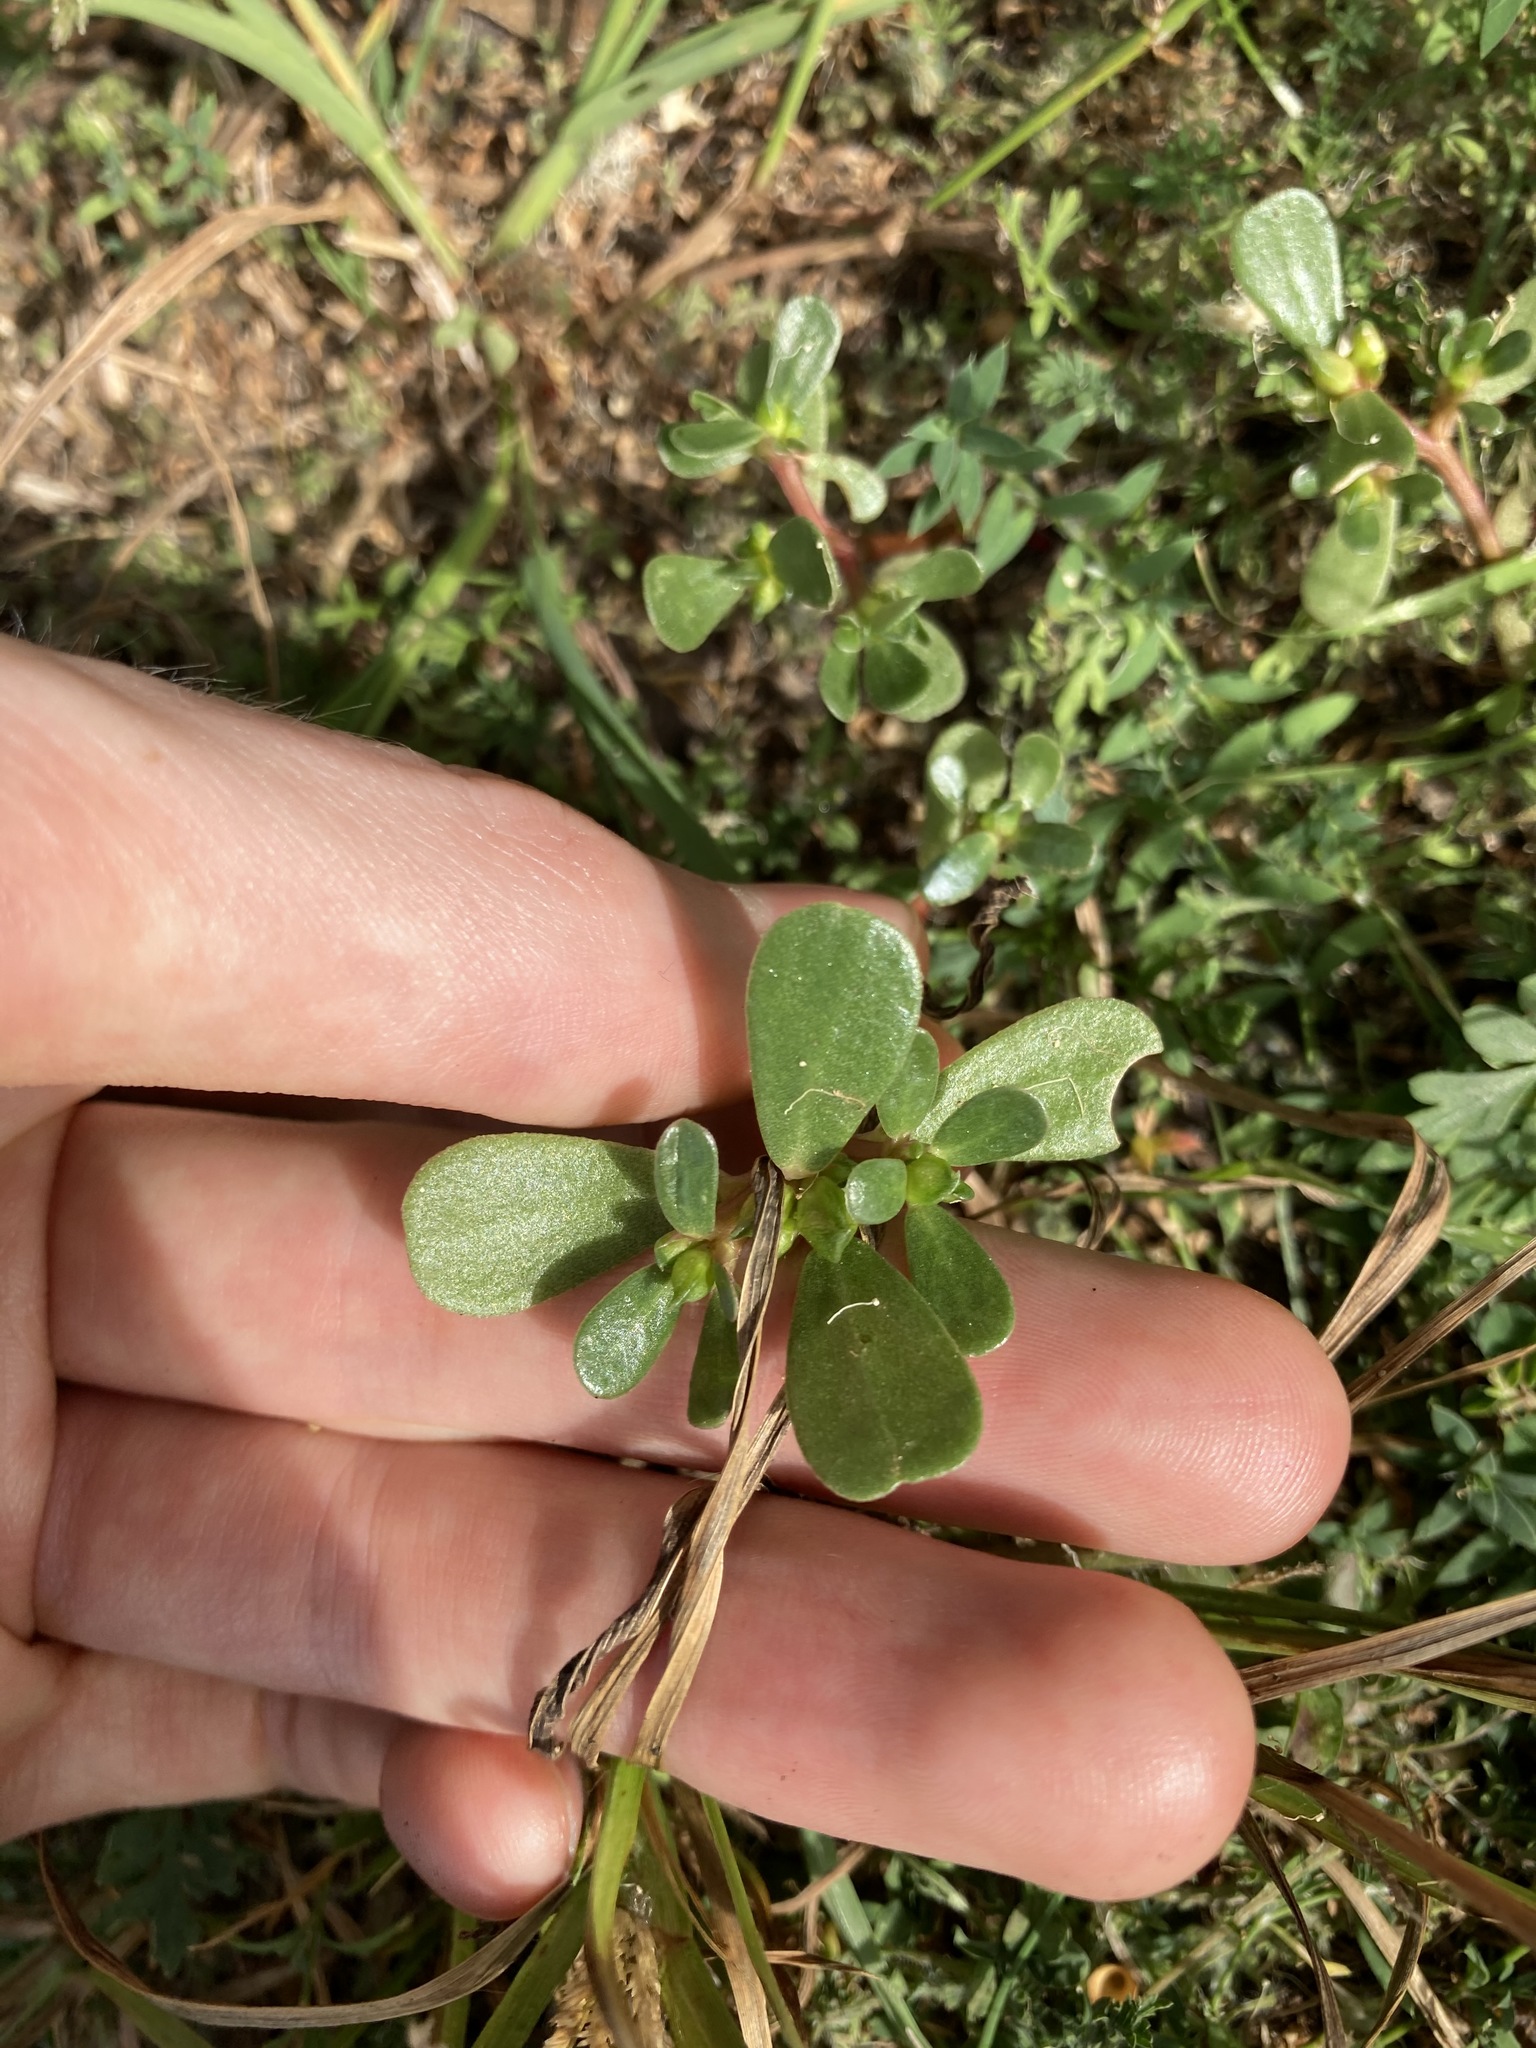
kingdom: Plantae
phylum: Tracheophyta
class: Magnoliopsida
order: Caryophyllales
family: Portulacaceae
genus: Portulaca
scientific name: Portulaca oleracea
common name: Common purslane
